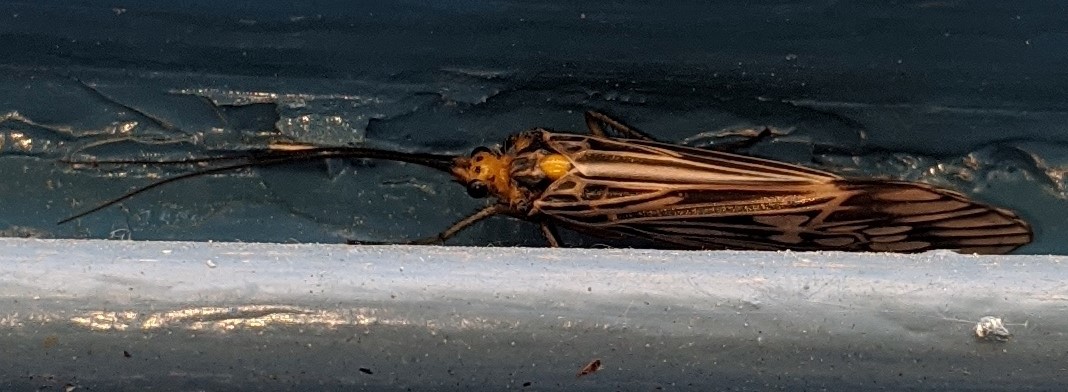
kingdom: Animalia
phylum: Arthropoda
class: Insecta
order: Trichoptera
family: Limnephilidae
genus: Hydatophylax
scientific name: Hydatophylax argus
